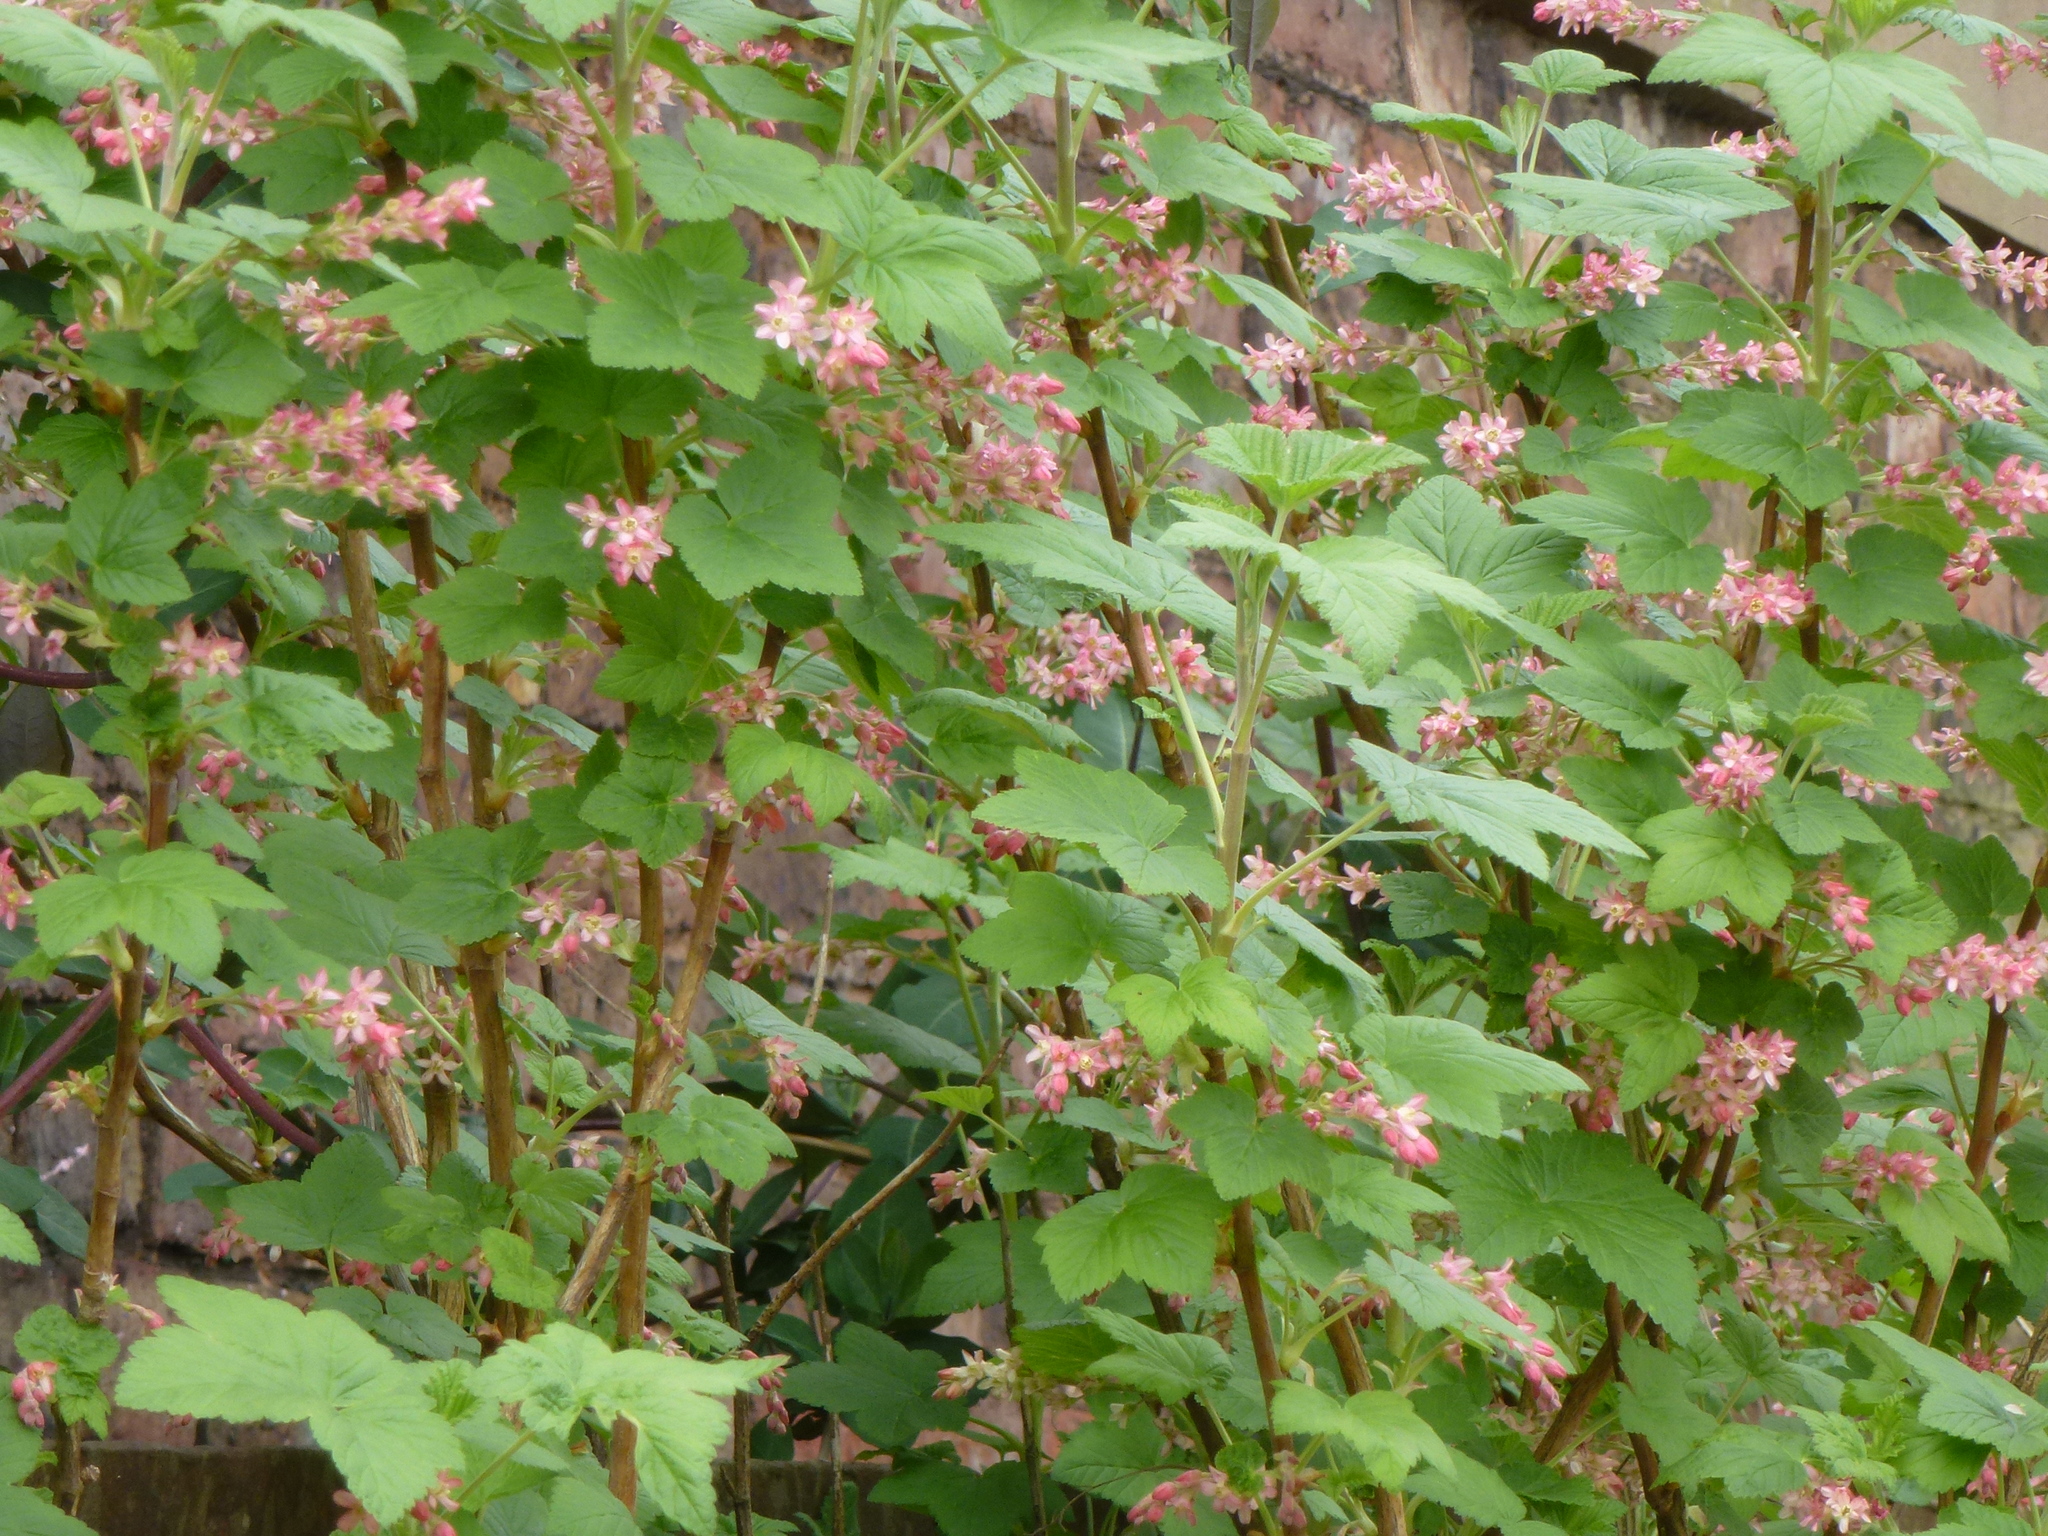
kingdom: Plantae
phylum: Tracheophyta
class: Magnoliopsida
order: Saxifragales
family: Grossulariaceae
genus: Ribes
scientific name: Ribes sanguineum
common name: Flowering currant
